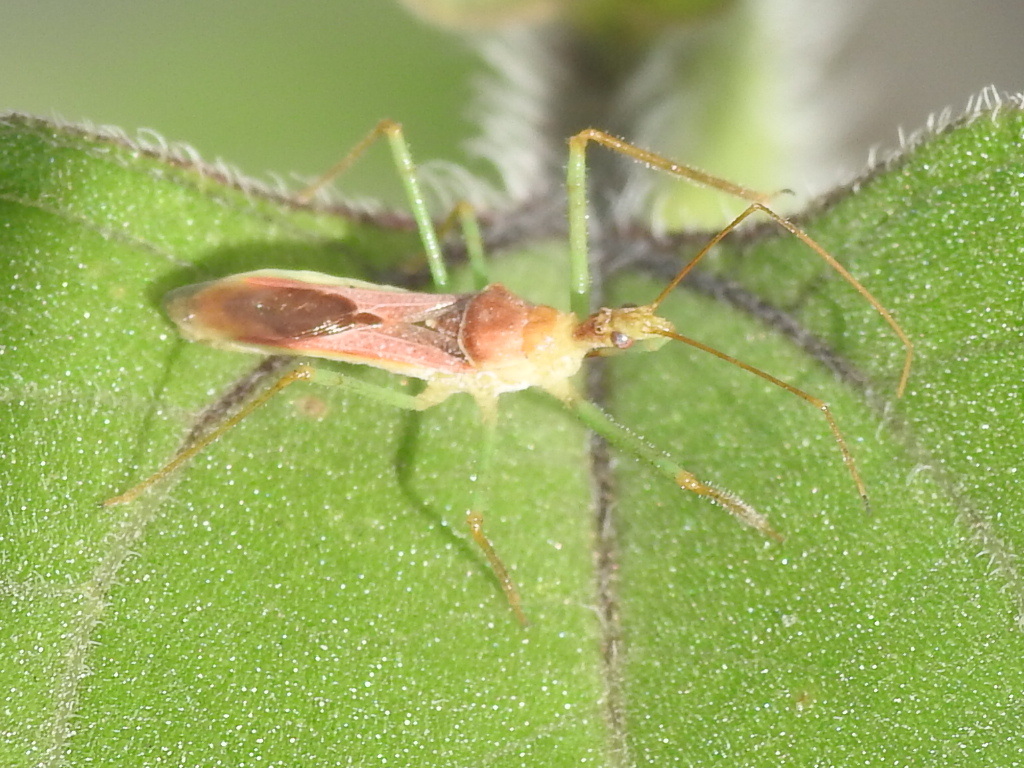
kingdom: Animalia
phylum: Arthropoda
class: Insecta
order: Hemiptera
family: Reduviidae
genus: Zelus
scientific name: Zelus renardii
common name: Assassin bug
